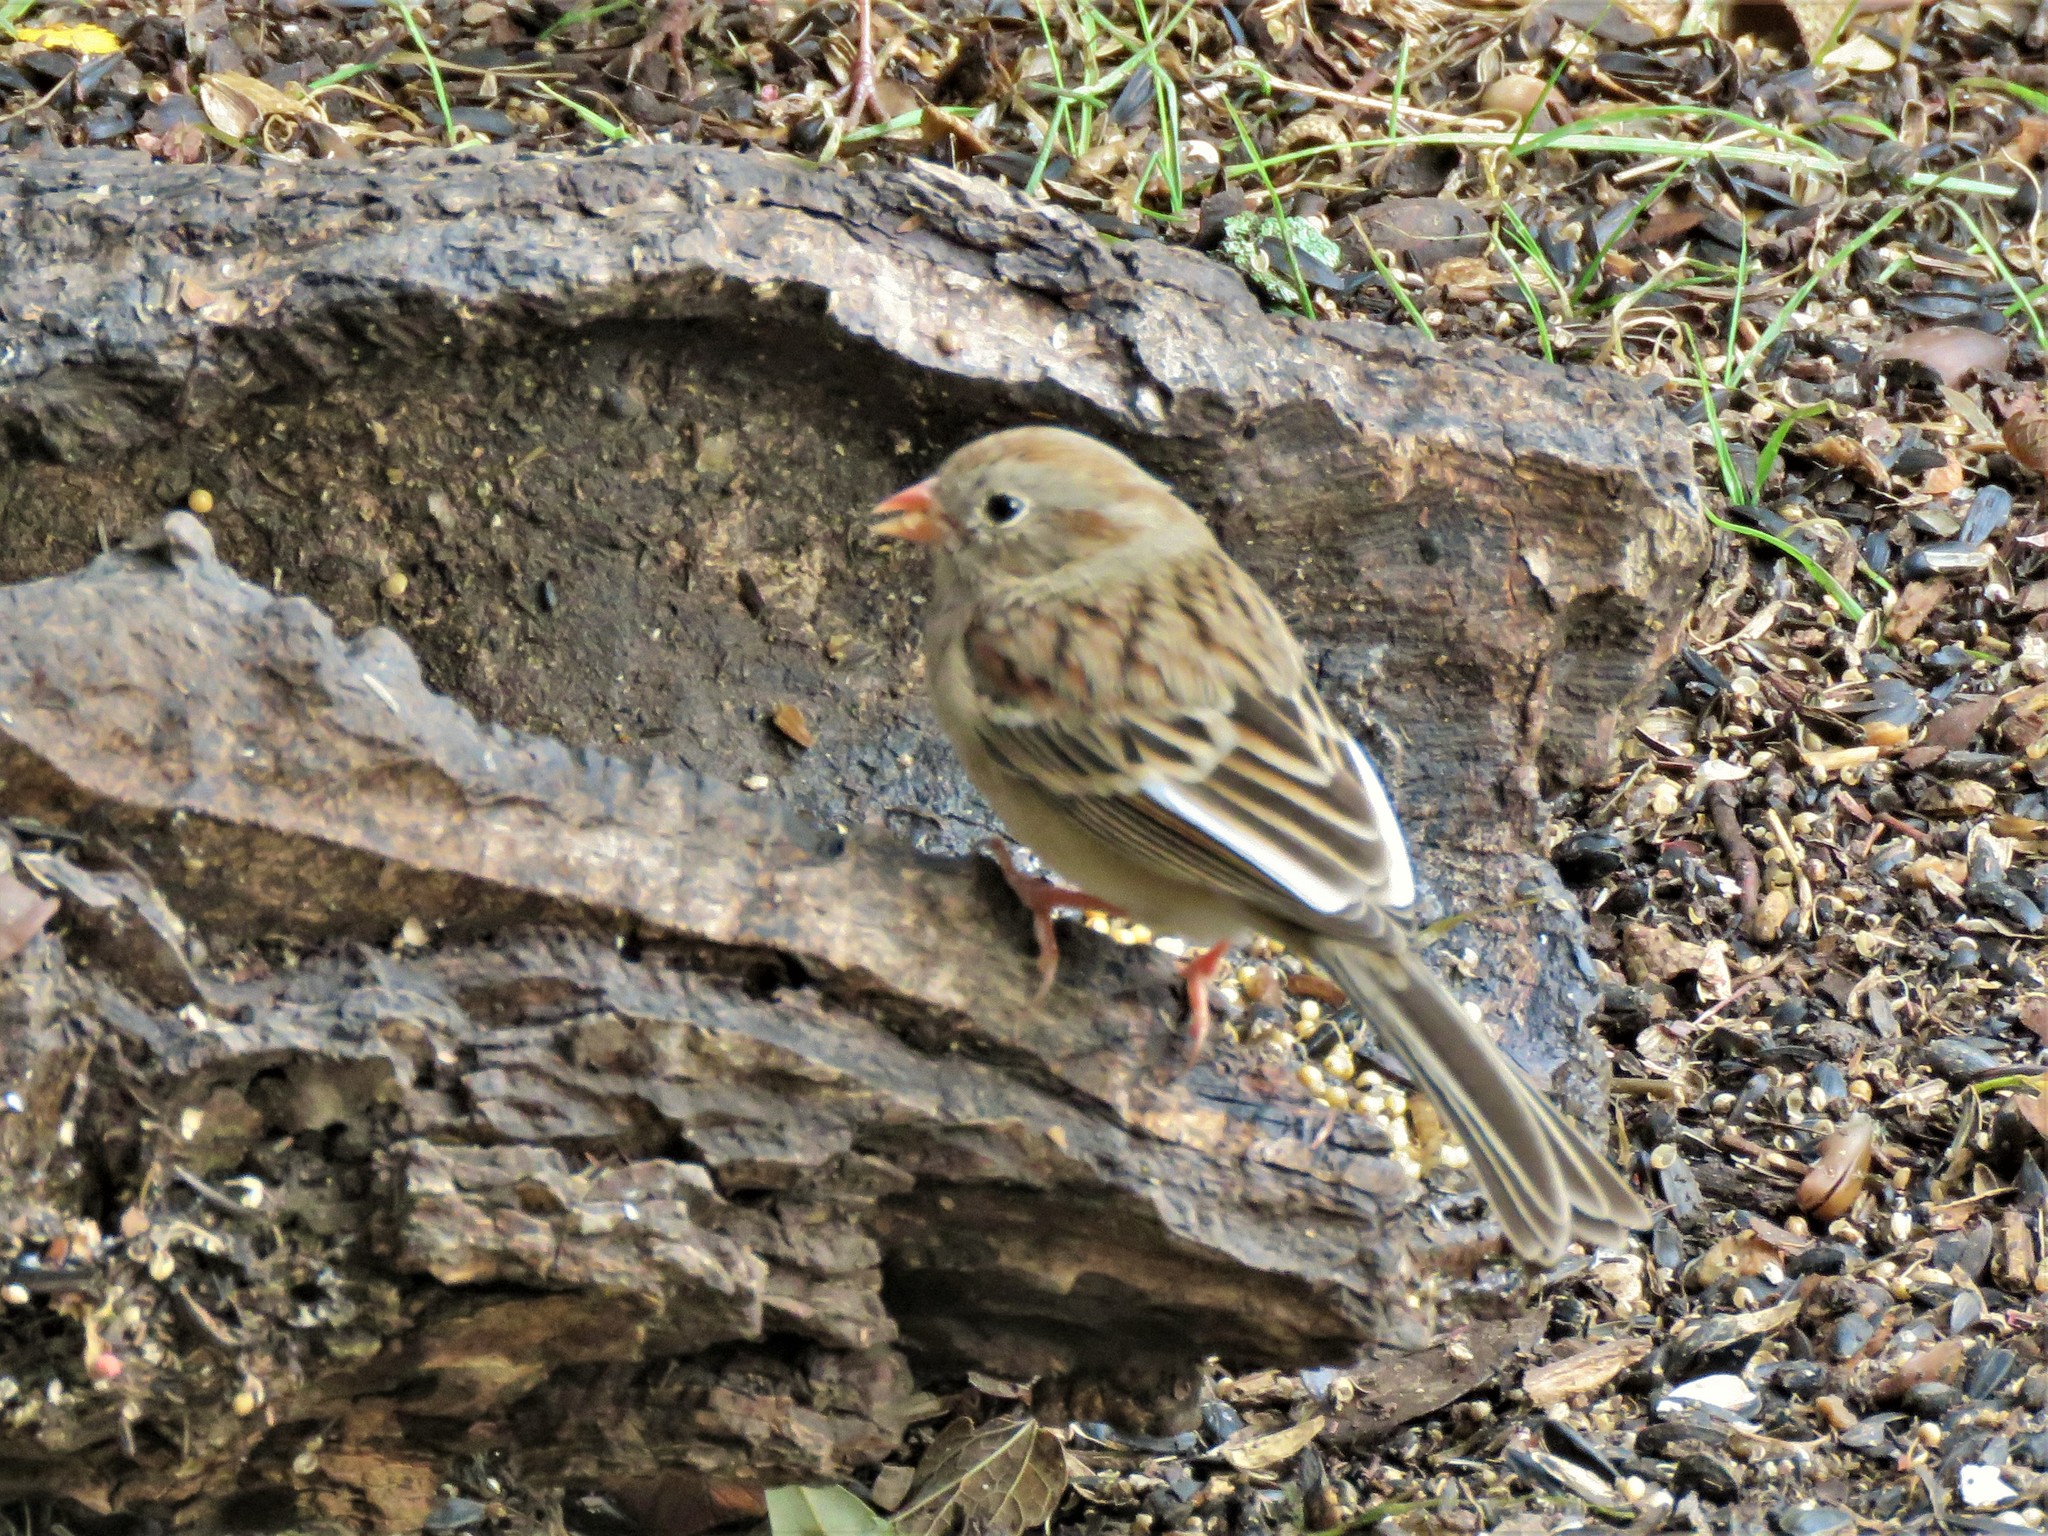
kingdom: Animalia
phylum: Chordata
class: Aves
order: Passeriformes
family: Passerellidae
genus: Spizella
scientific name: Spizella pusilla
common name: Field sparrow
